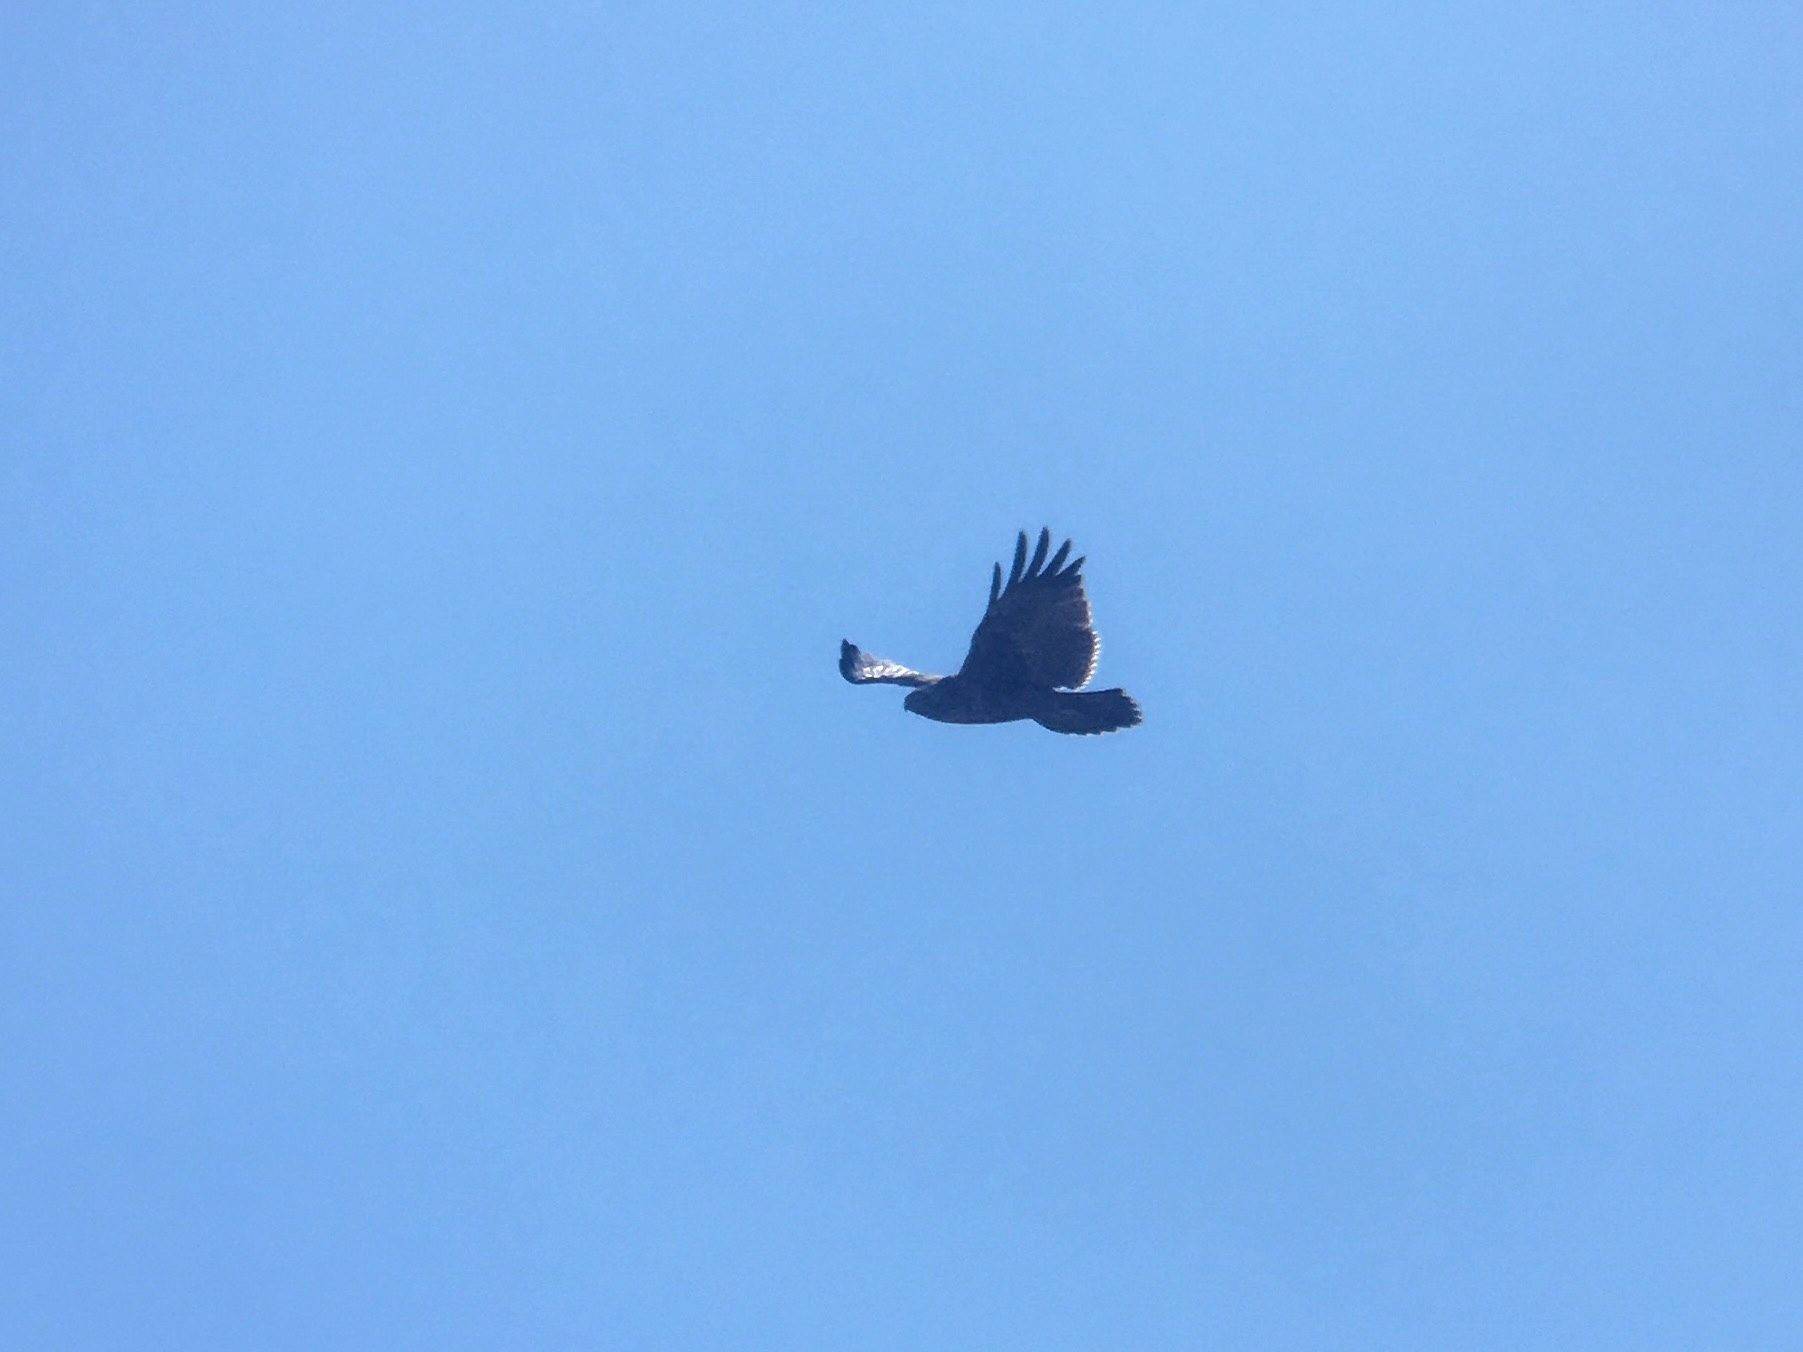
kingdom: Animalia
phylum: Chordata
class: Aves
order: Accipitriformes
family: Accipitridae
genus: Geranoaetus
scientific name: Geranoaetus melanoleucus
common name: Black-chested buzzard-eagle
